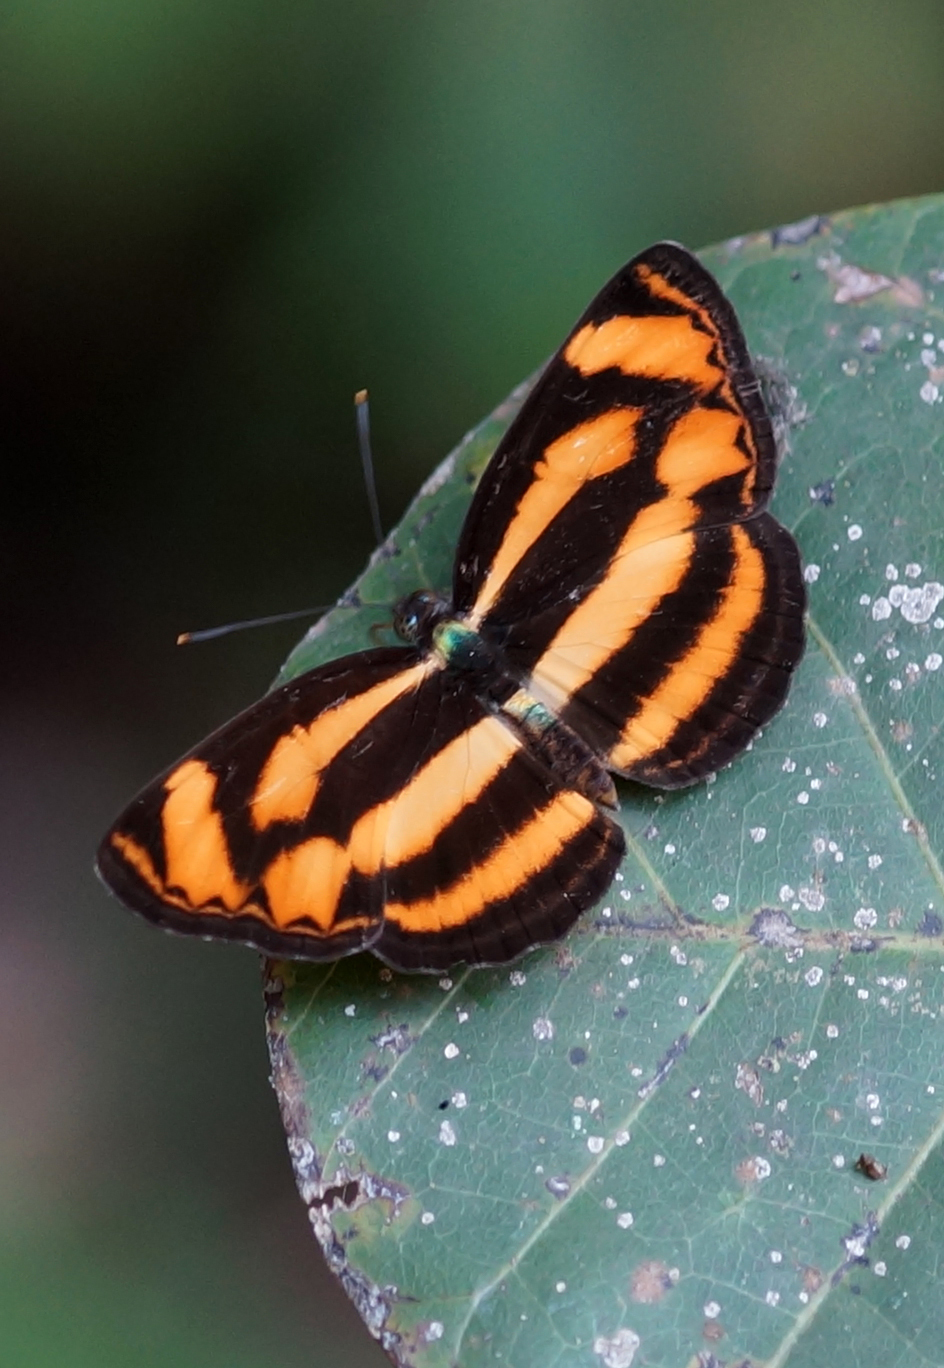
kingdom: Animalia
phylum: Arthropoda
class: Insecta
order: Lepidoptera
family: Nymphalidae
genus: Lasippa
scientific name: Lasippa
